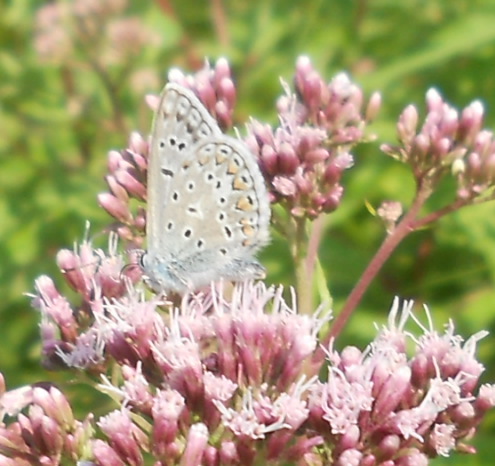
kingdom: Animalia
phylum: Arthropoda
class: Insecta
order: Lepidoptera
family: Lycaenidae
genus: Polyommatus
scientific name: Polyommatus icarus
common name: Common blue
